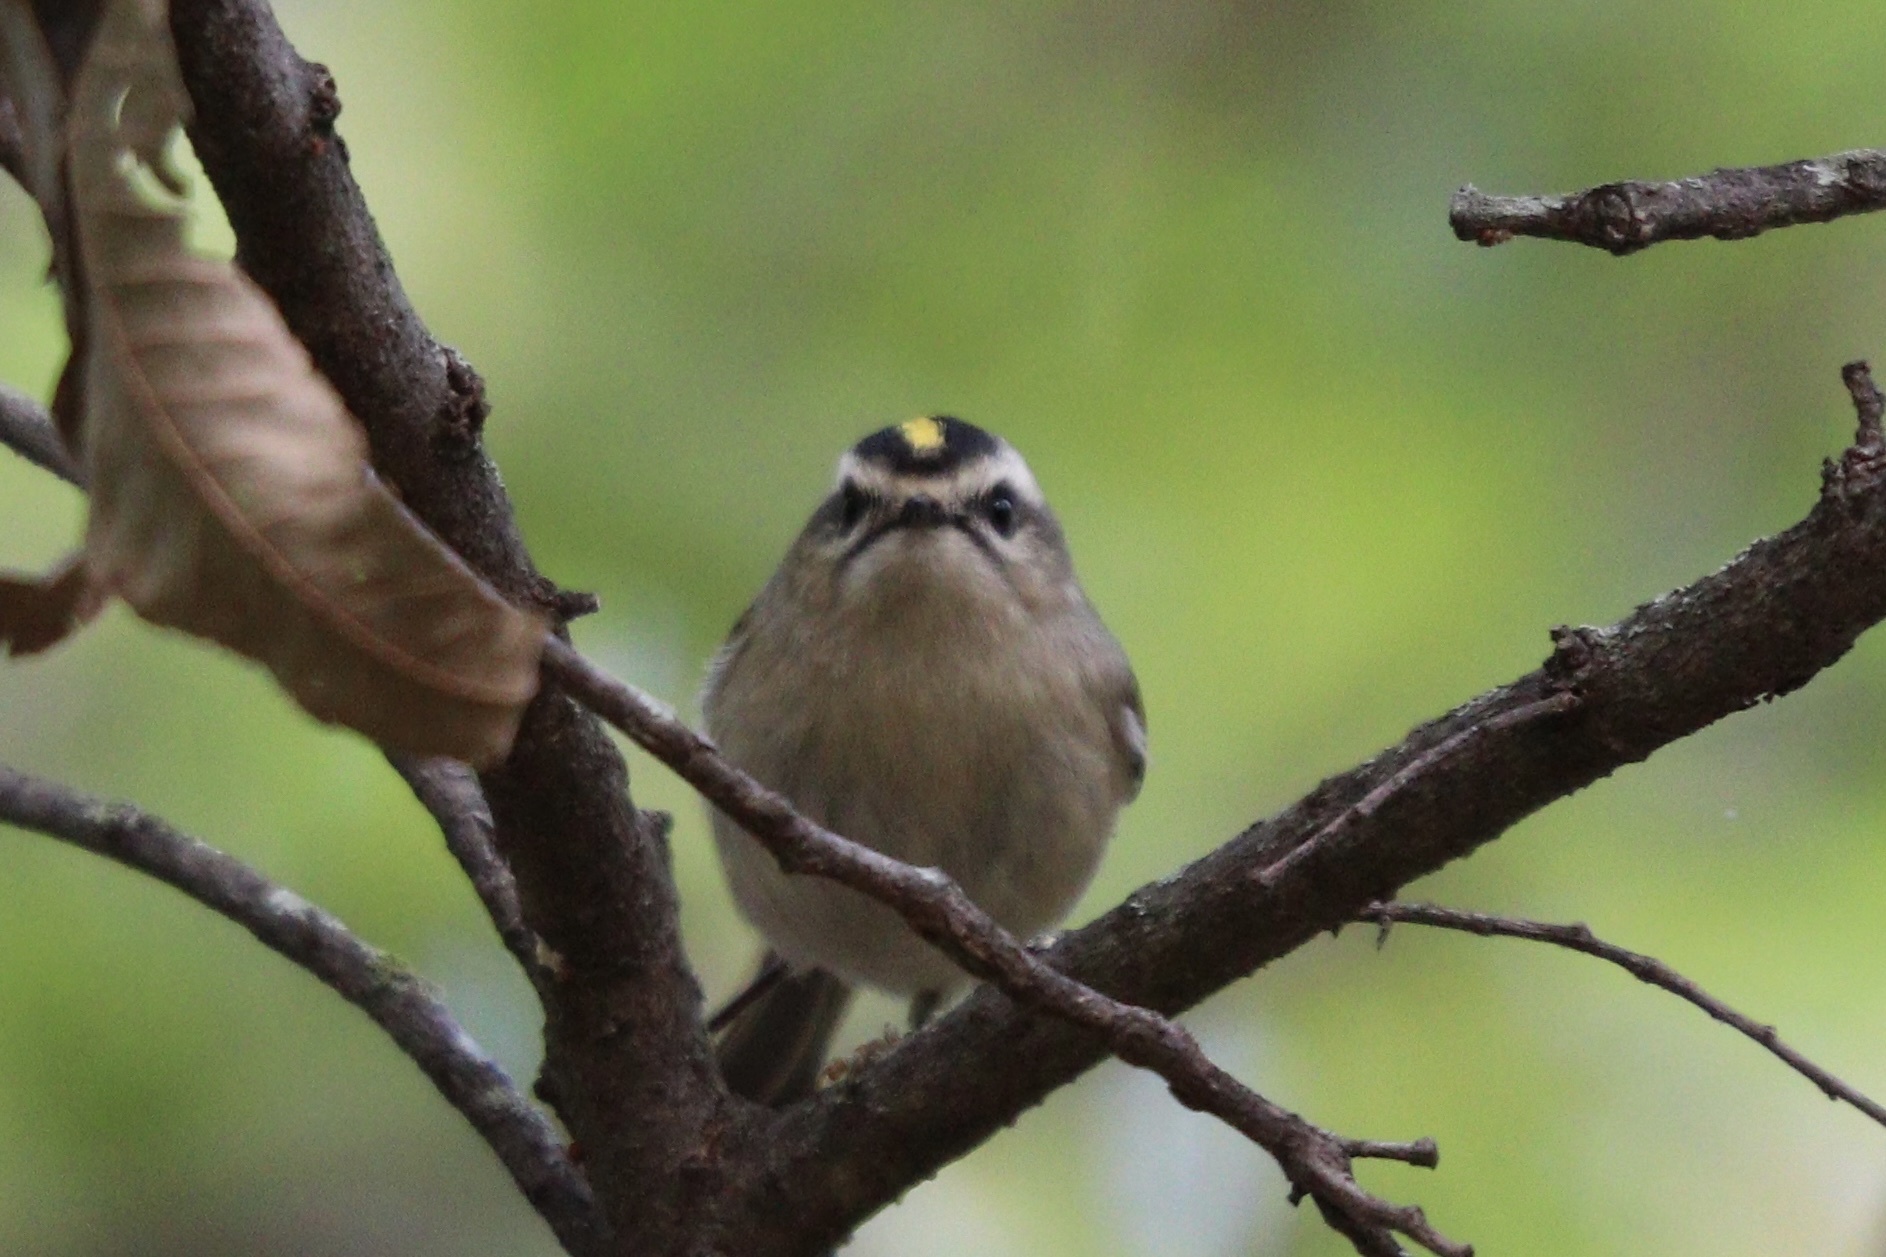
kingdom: Animalia
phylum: Chordata
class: Aves
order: Passeriformes
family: Regulidae
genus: Regulus
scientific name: Regulus satrapa
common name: Golden-crowned kinglet
